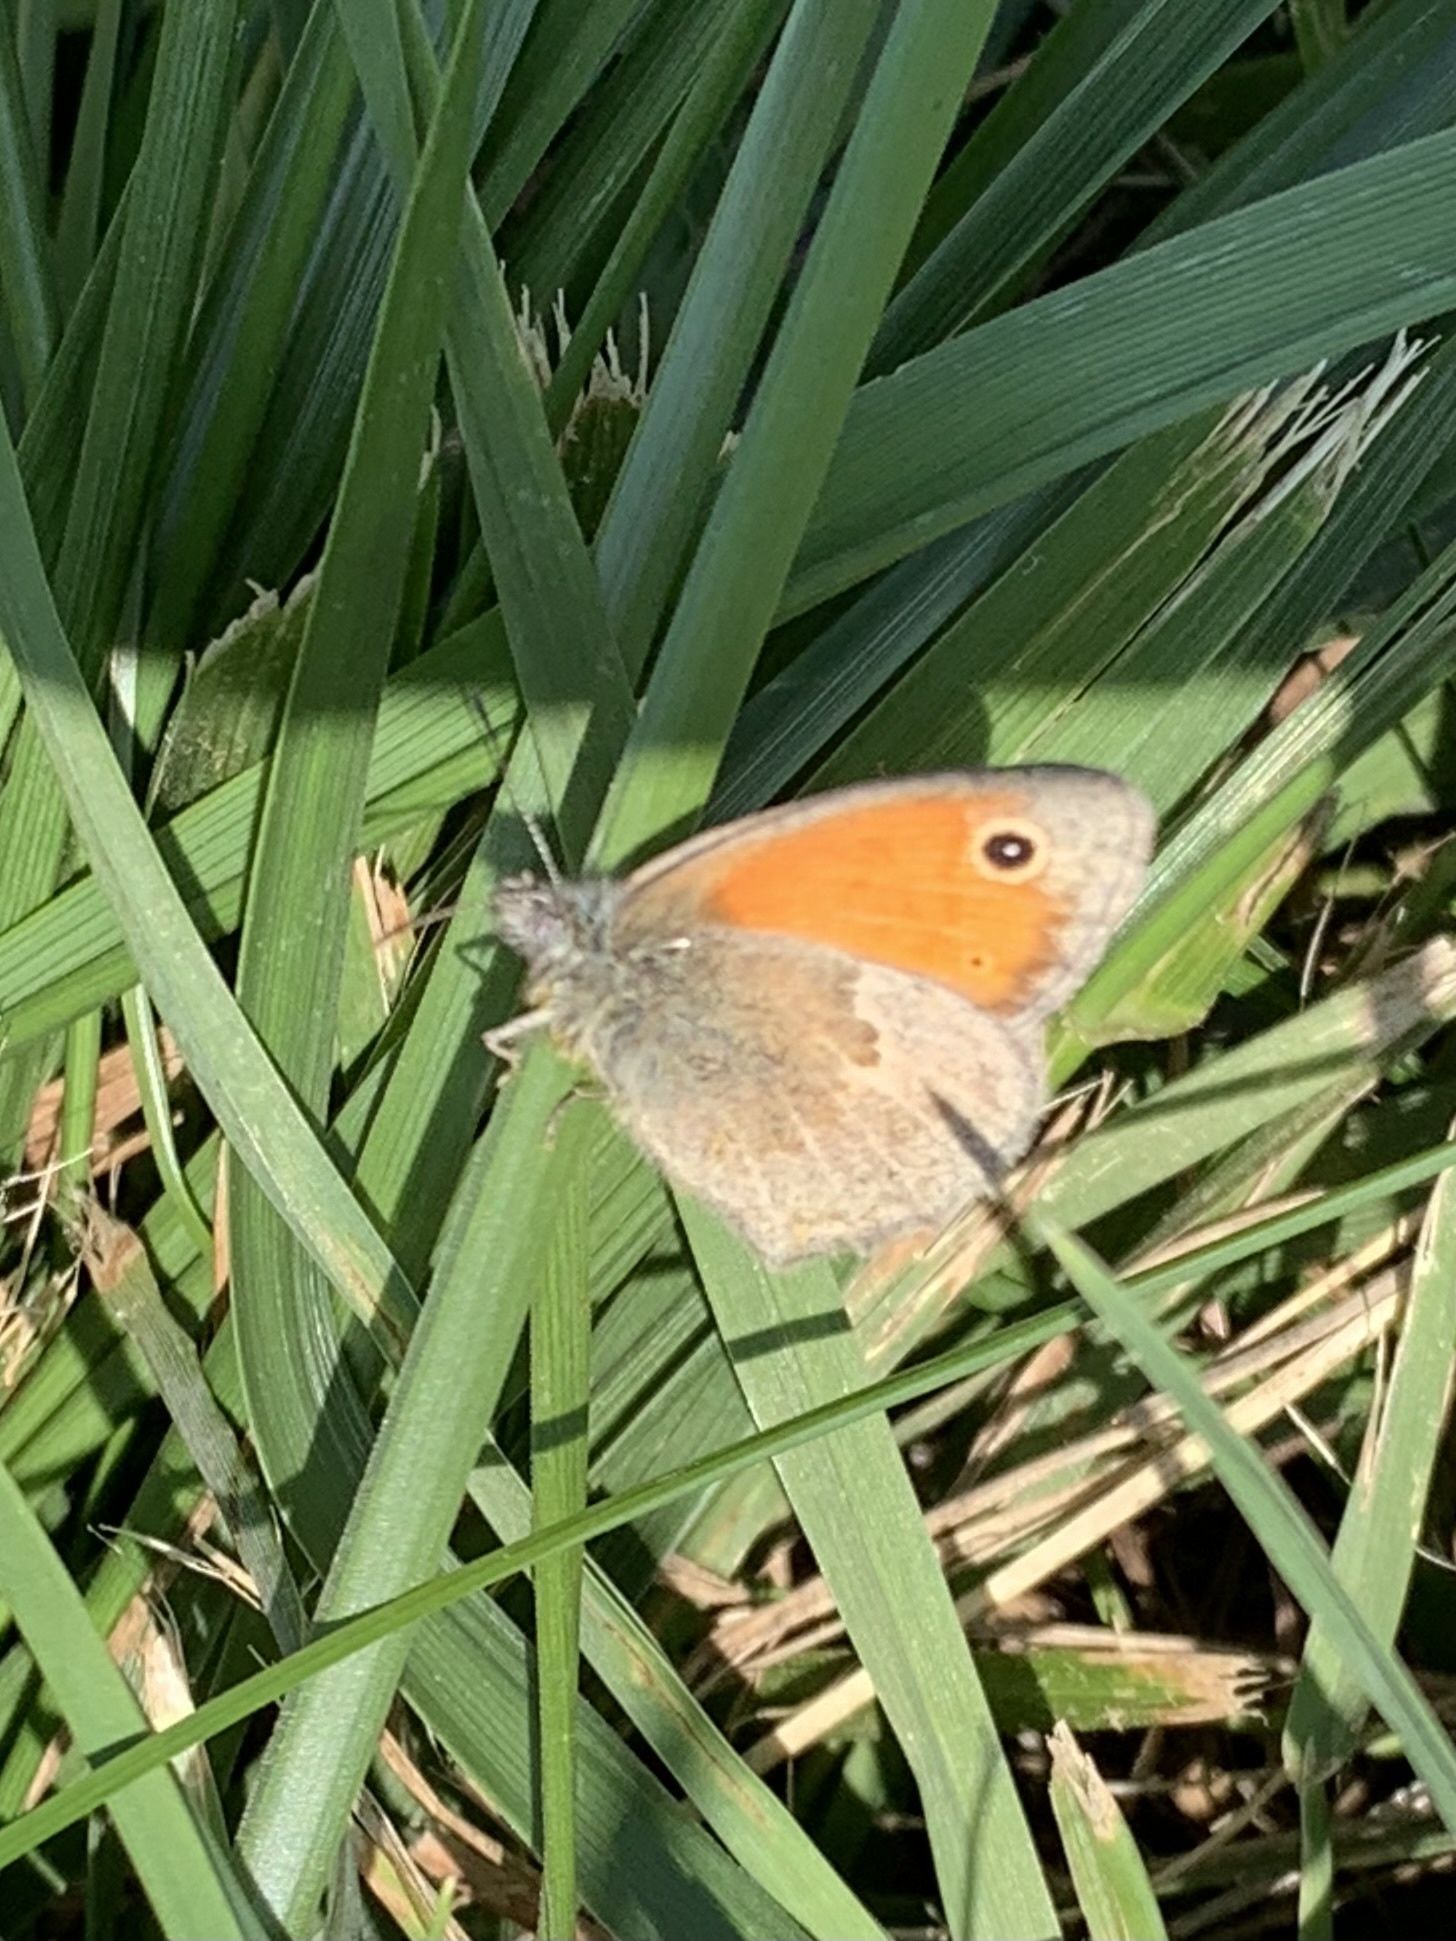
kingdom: Animalia
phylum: Arthropoda
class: Insecta
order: Lepidoptera
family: Nymphalidae
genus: Coenonympha
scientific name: Coenonympha pamphilus
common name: Small heath
